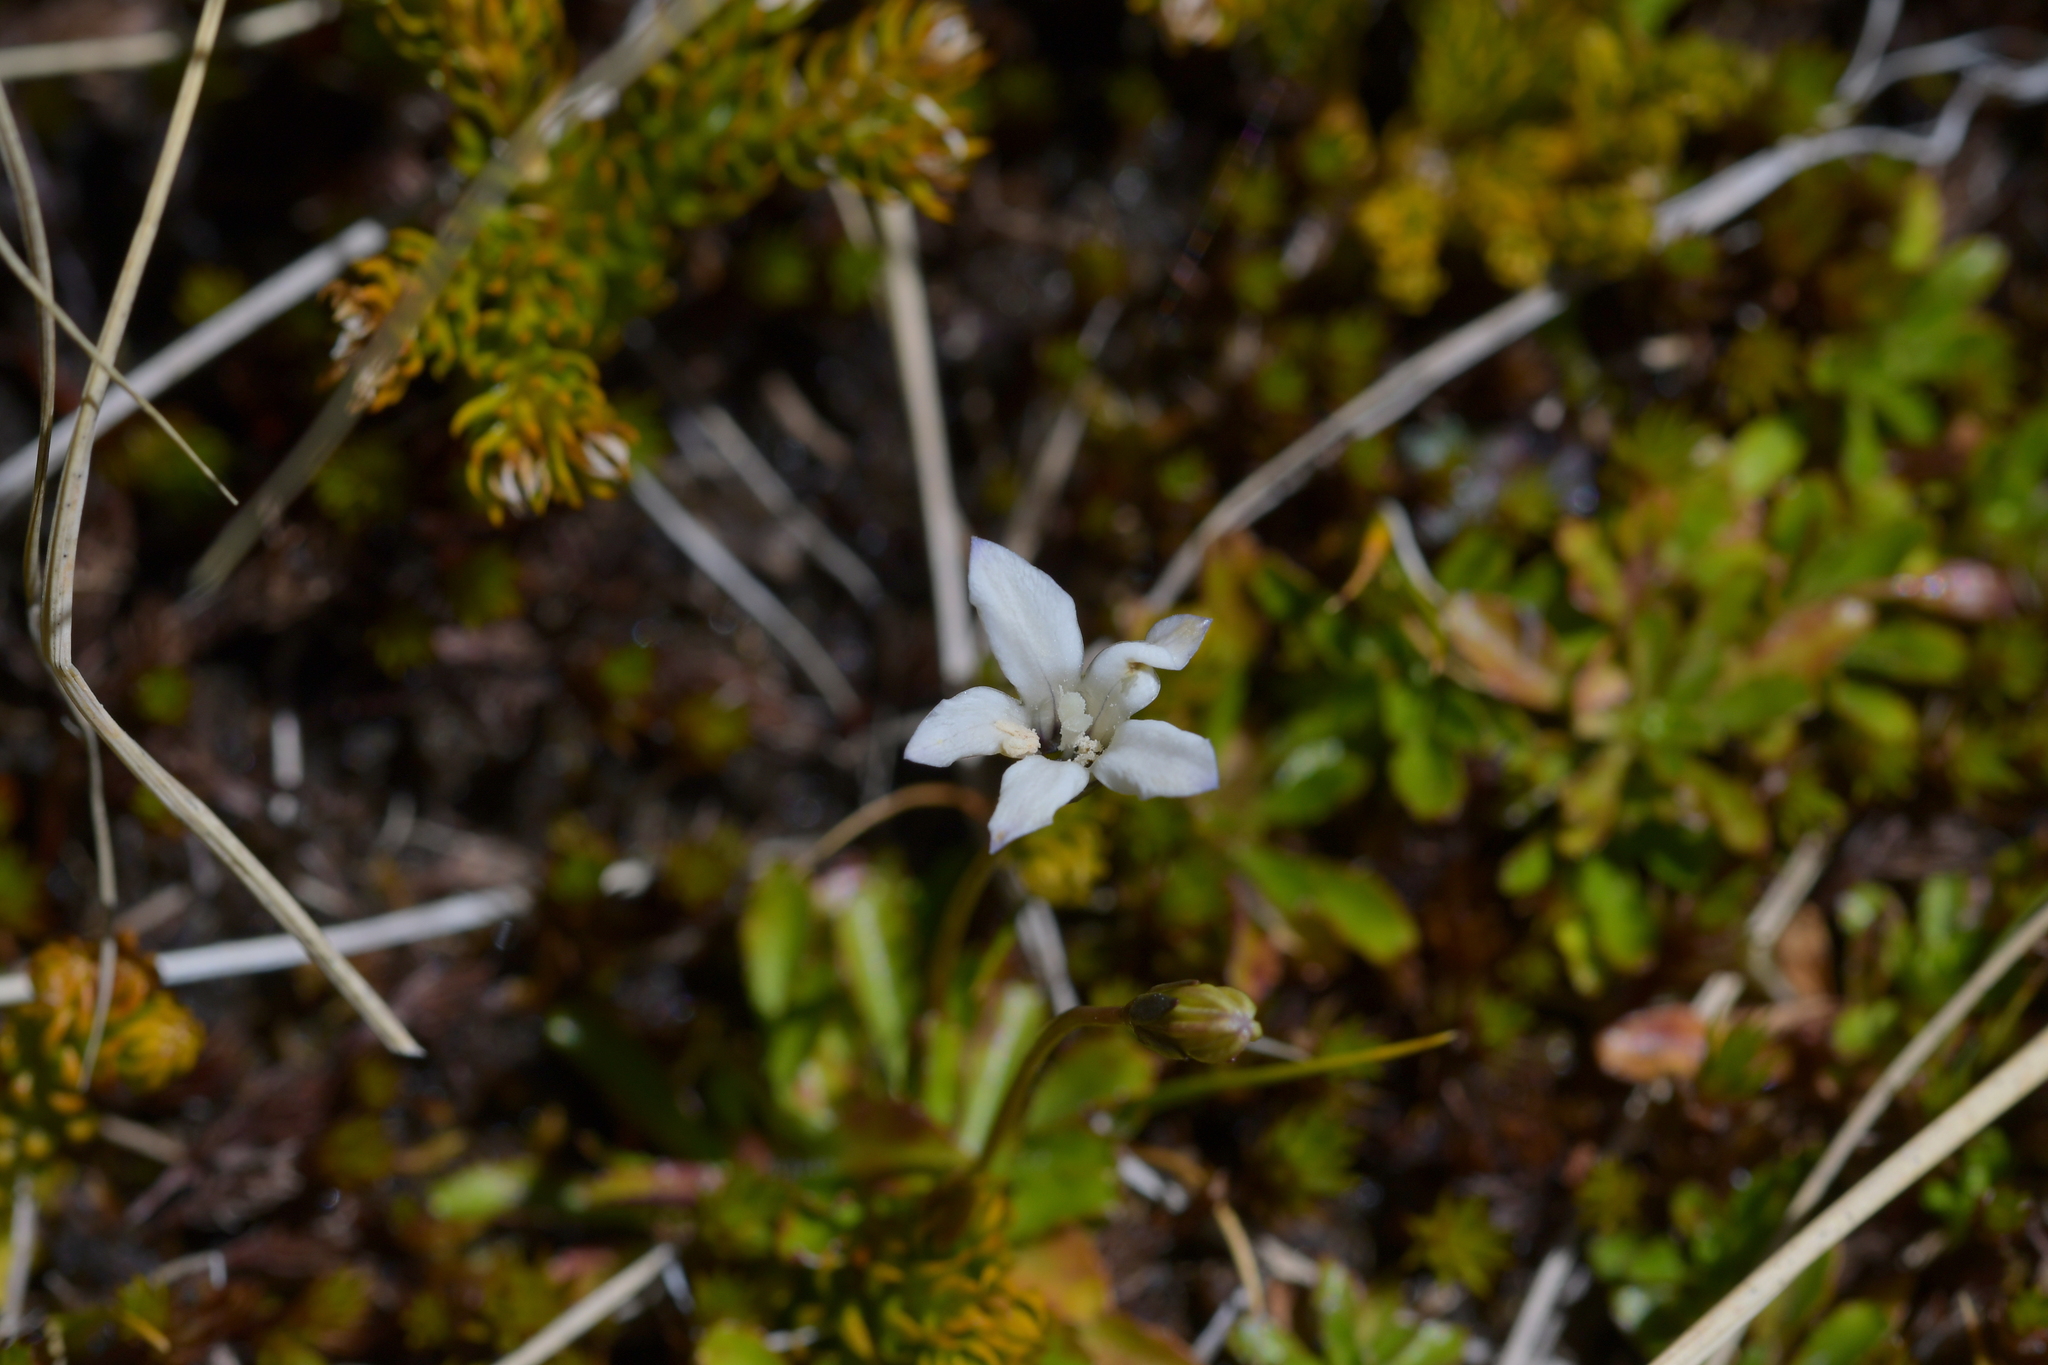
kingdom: Plantae
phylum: Tracheophyta
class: Magnoliopsida
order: Asterales
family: Campanulaceae
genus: Wahlenbergia
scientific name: Wahlenbergia albomarginata
